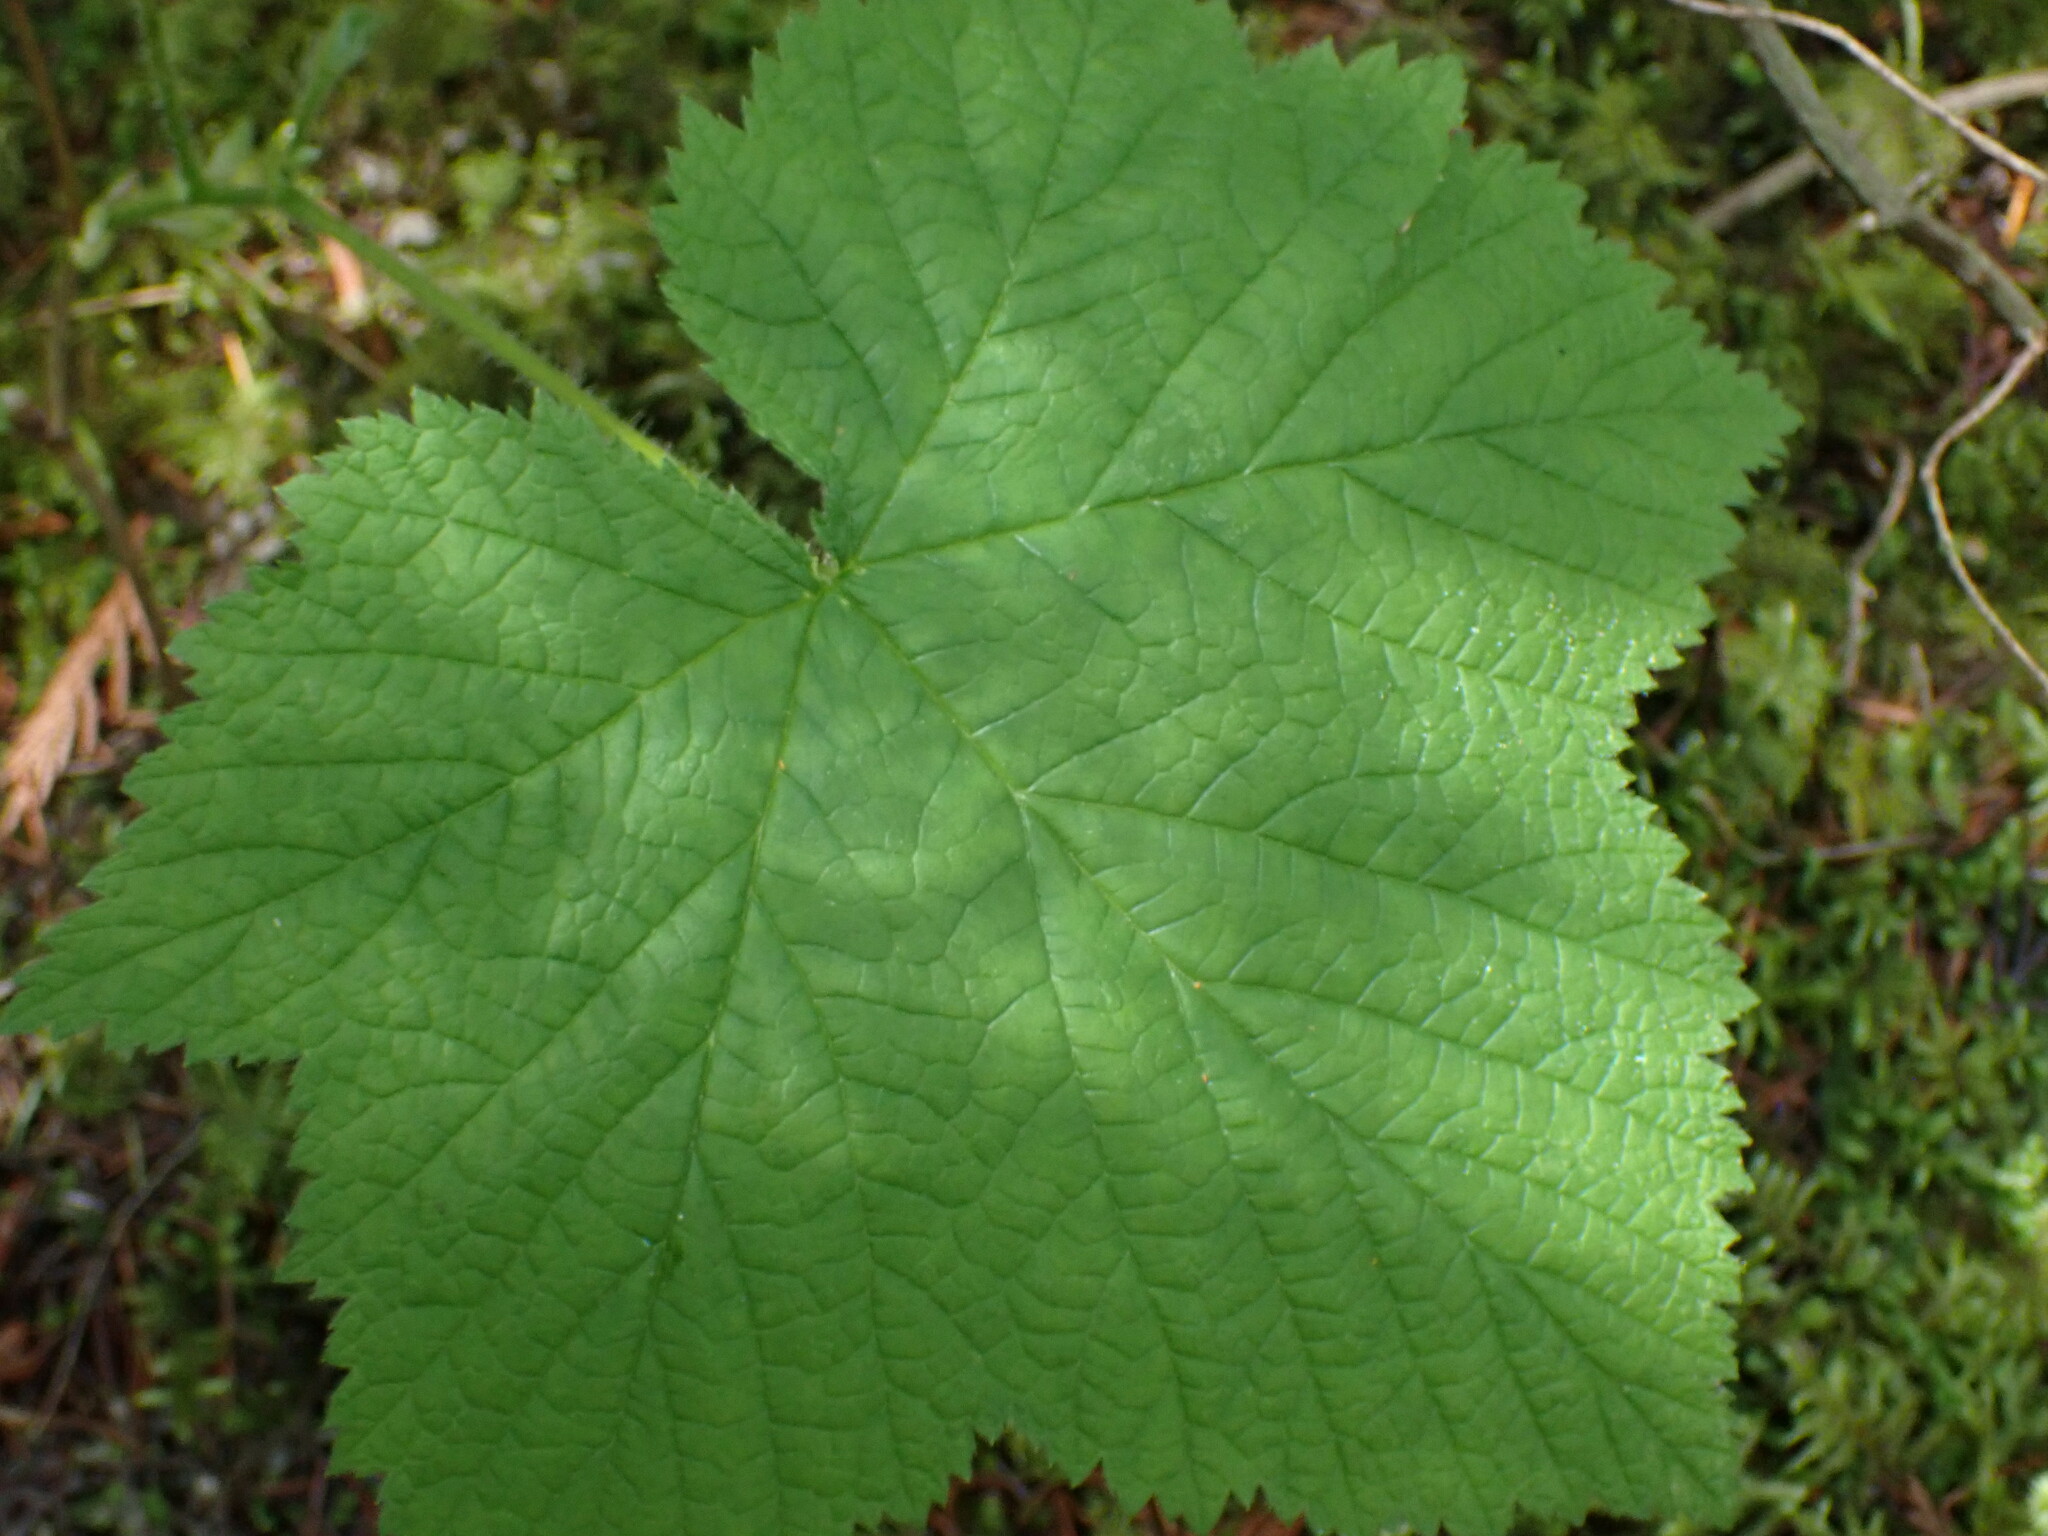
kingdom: Plantae
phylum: Tracheophyta
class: Magnoliopsida
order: Rosales
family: Rosaceae
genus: Rubus
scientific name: Rubus parviflorus
